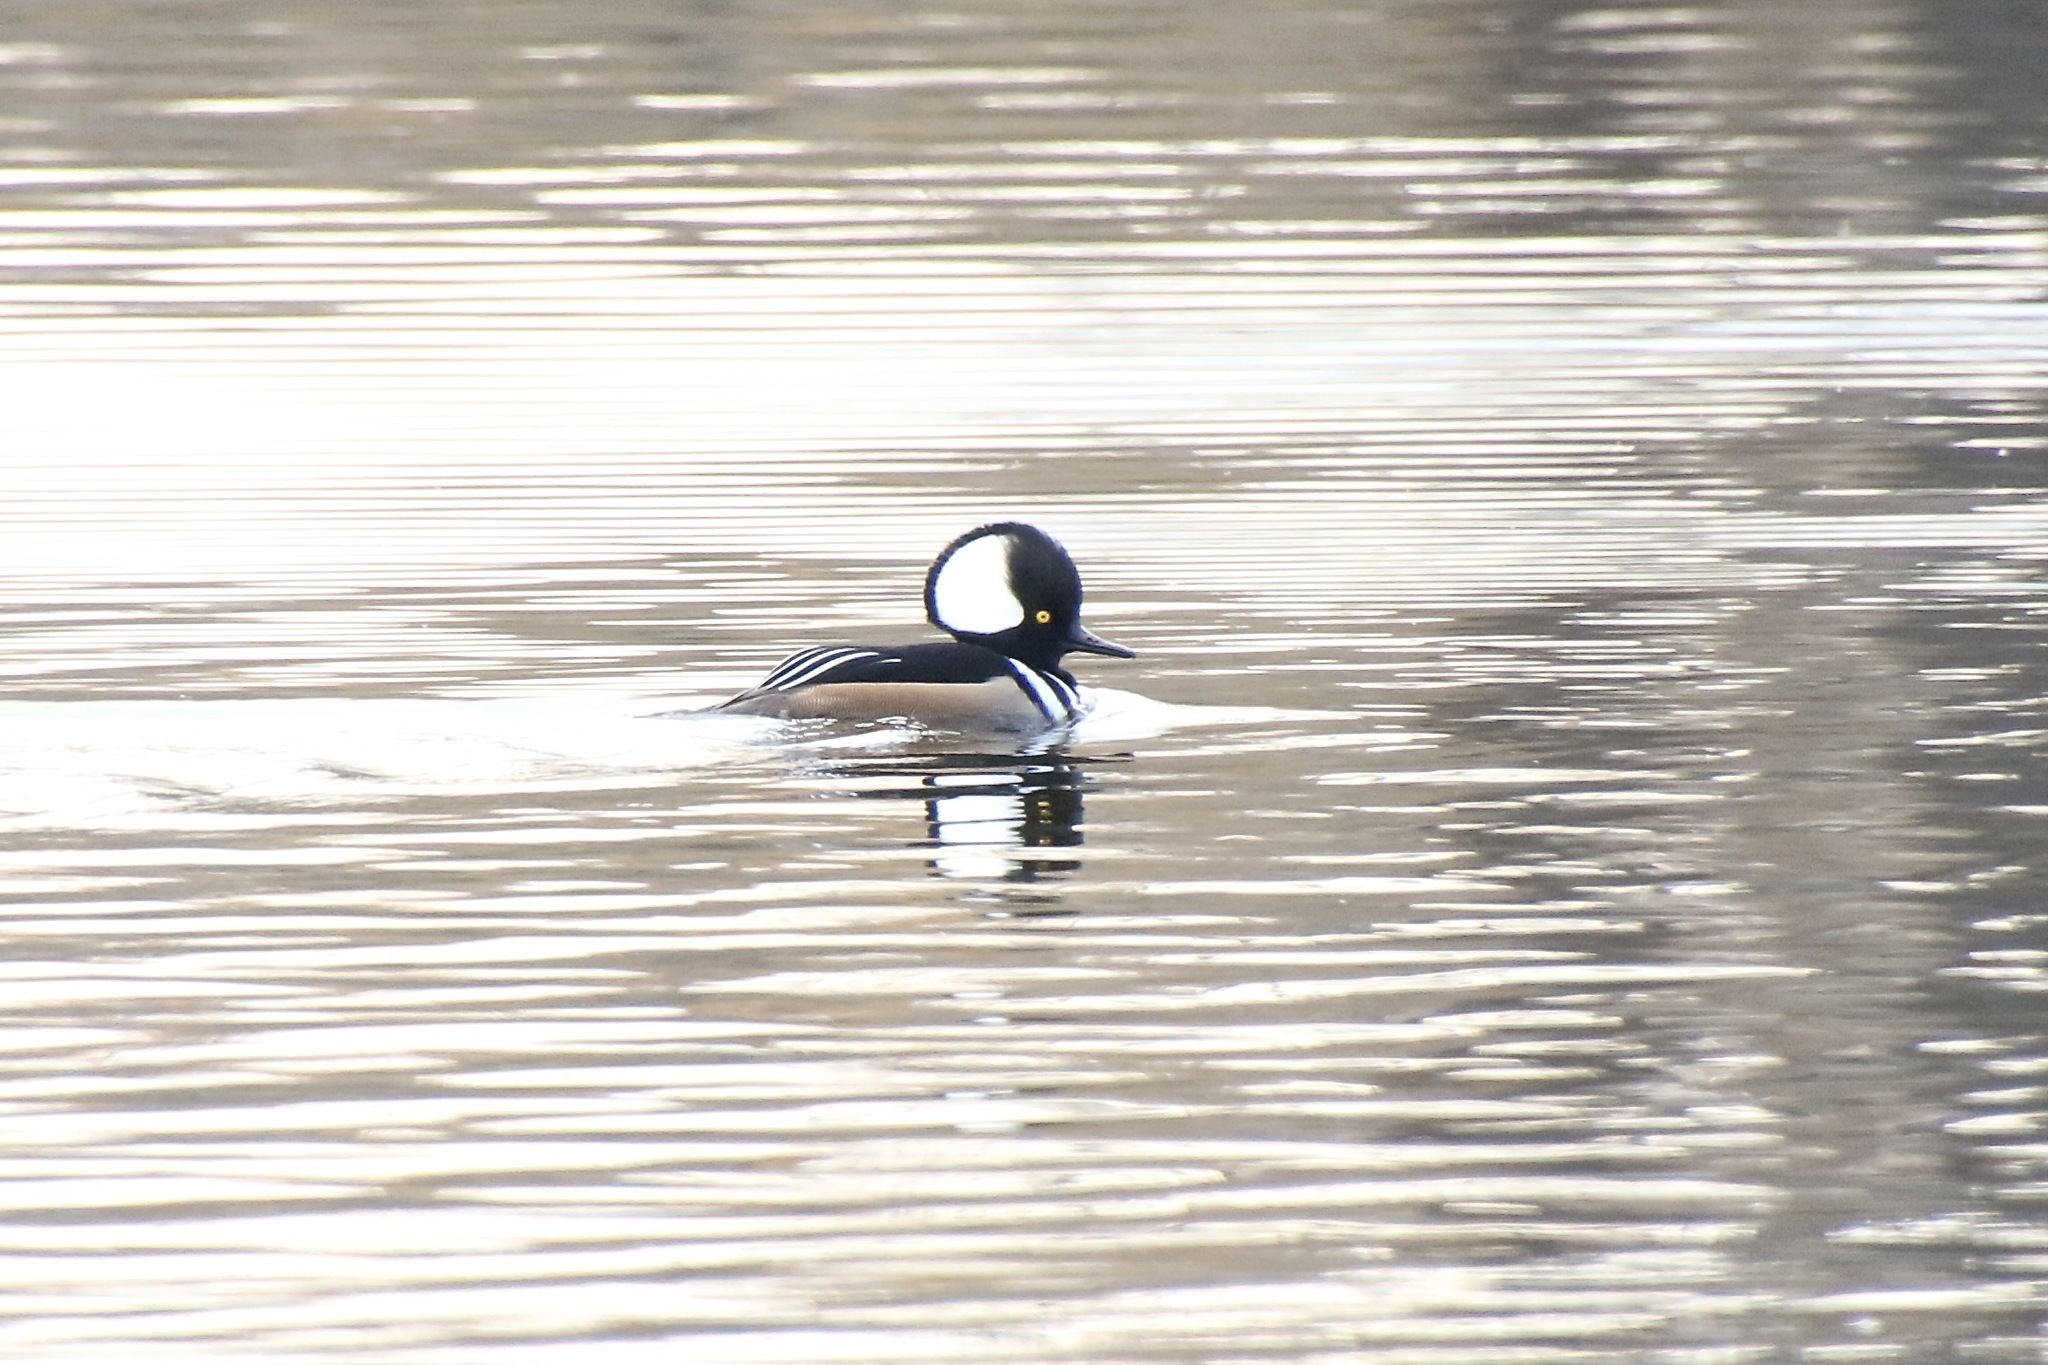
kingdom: Animalia
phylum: Chordata
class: Aves
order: Anseriformes
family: Anatidae
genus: Lophodytes
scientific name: Lophodytes cucullatus
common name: Hooded merganser
